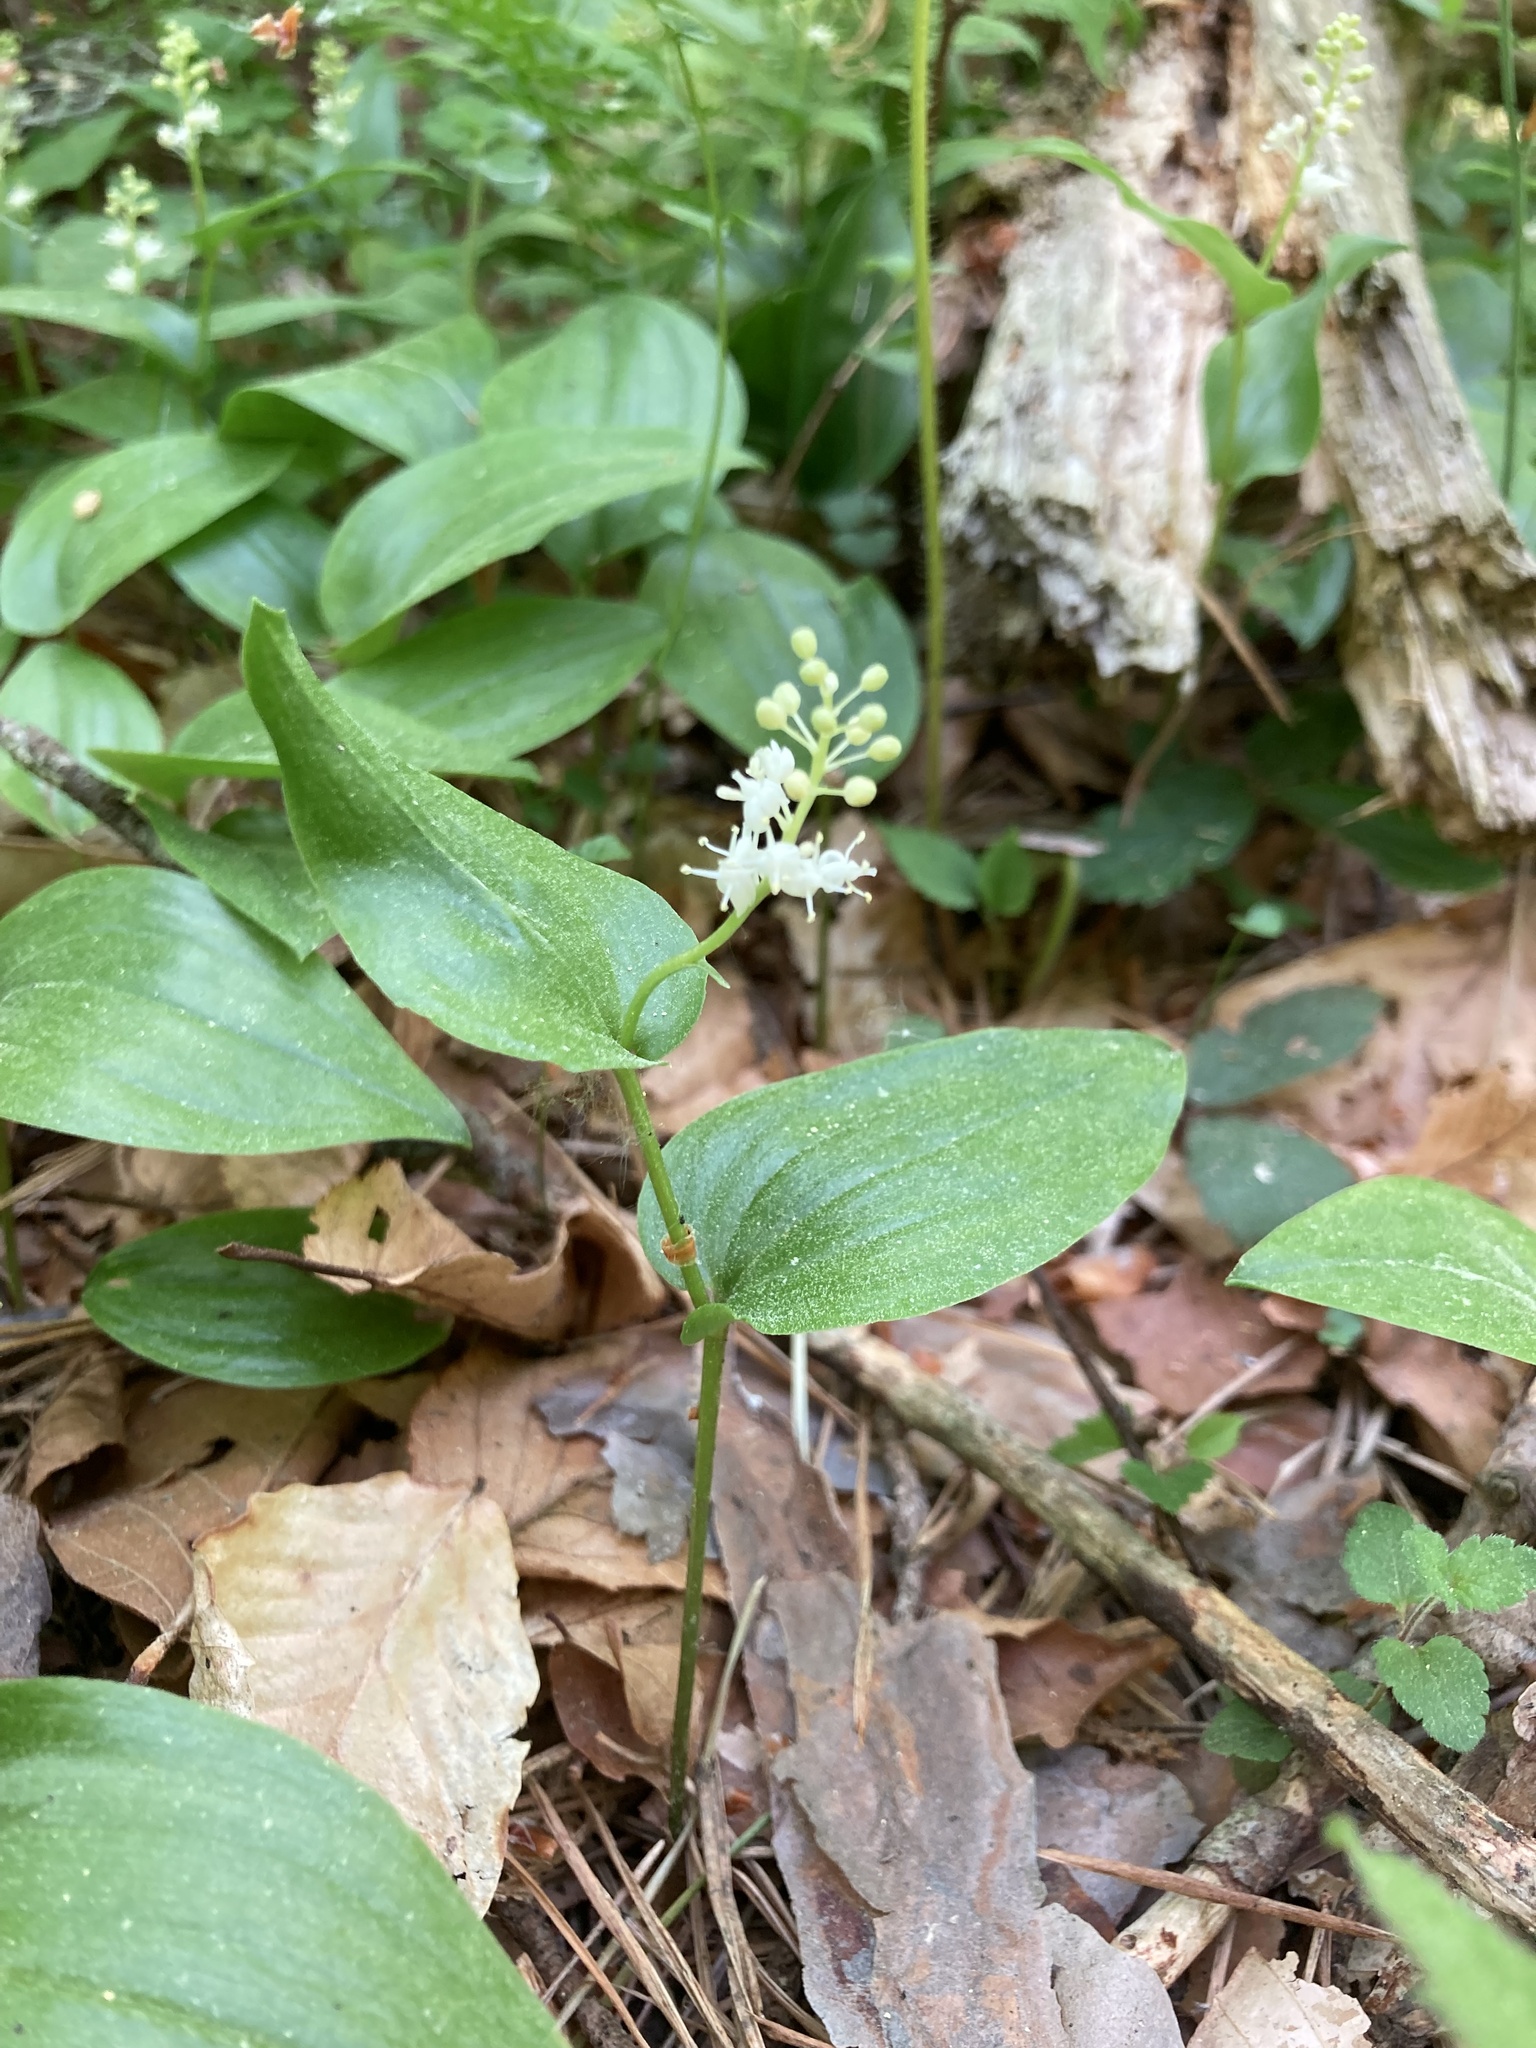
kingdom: Plantae
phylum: Tracheophyta
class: Liliopsida
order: Asparagales
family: Asparagaceae
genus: Maianthemum
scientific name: Maianthemum canadense
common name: False lily-of-the-valley
